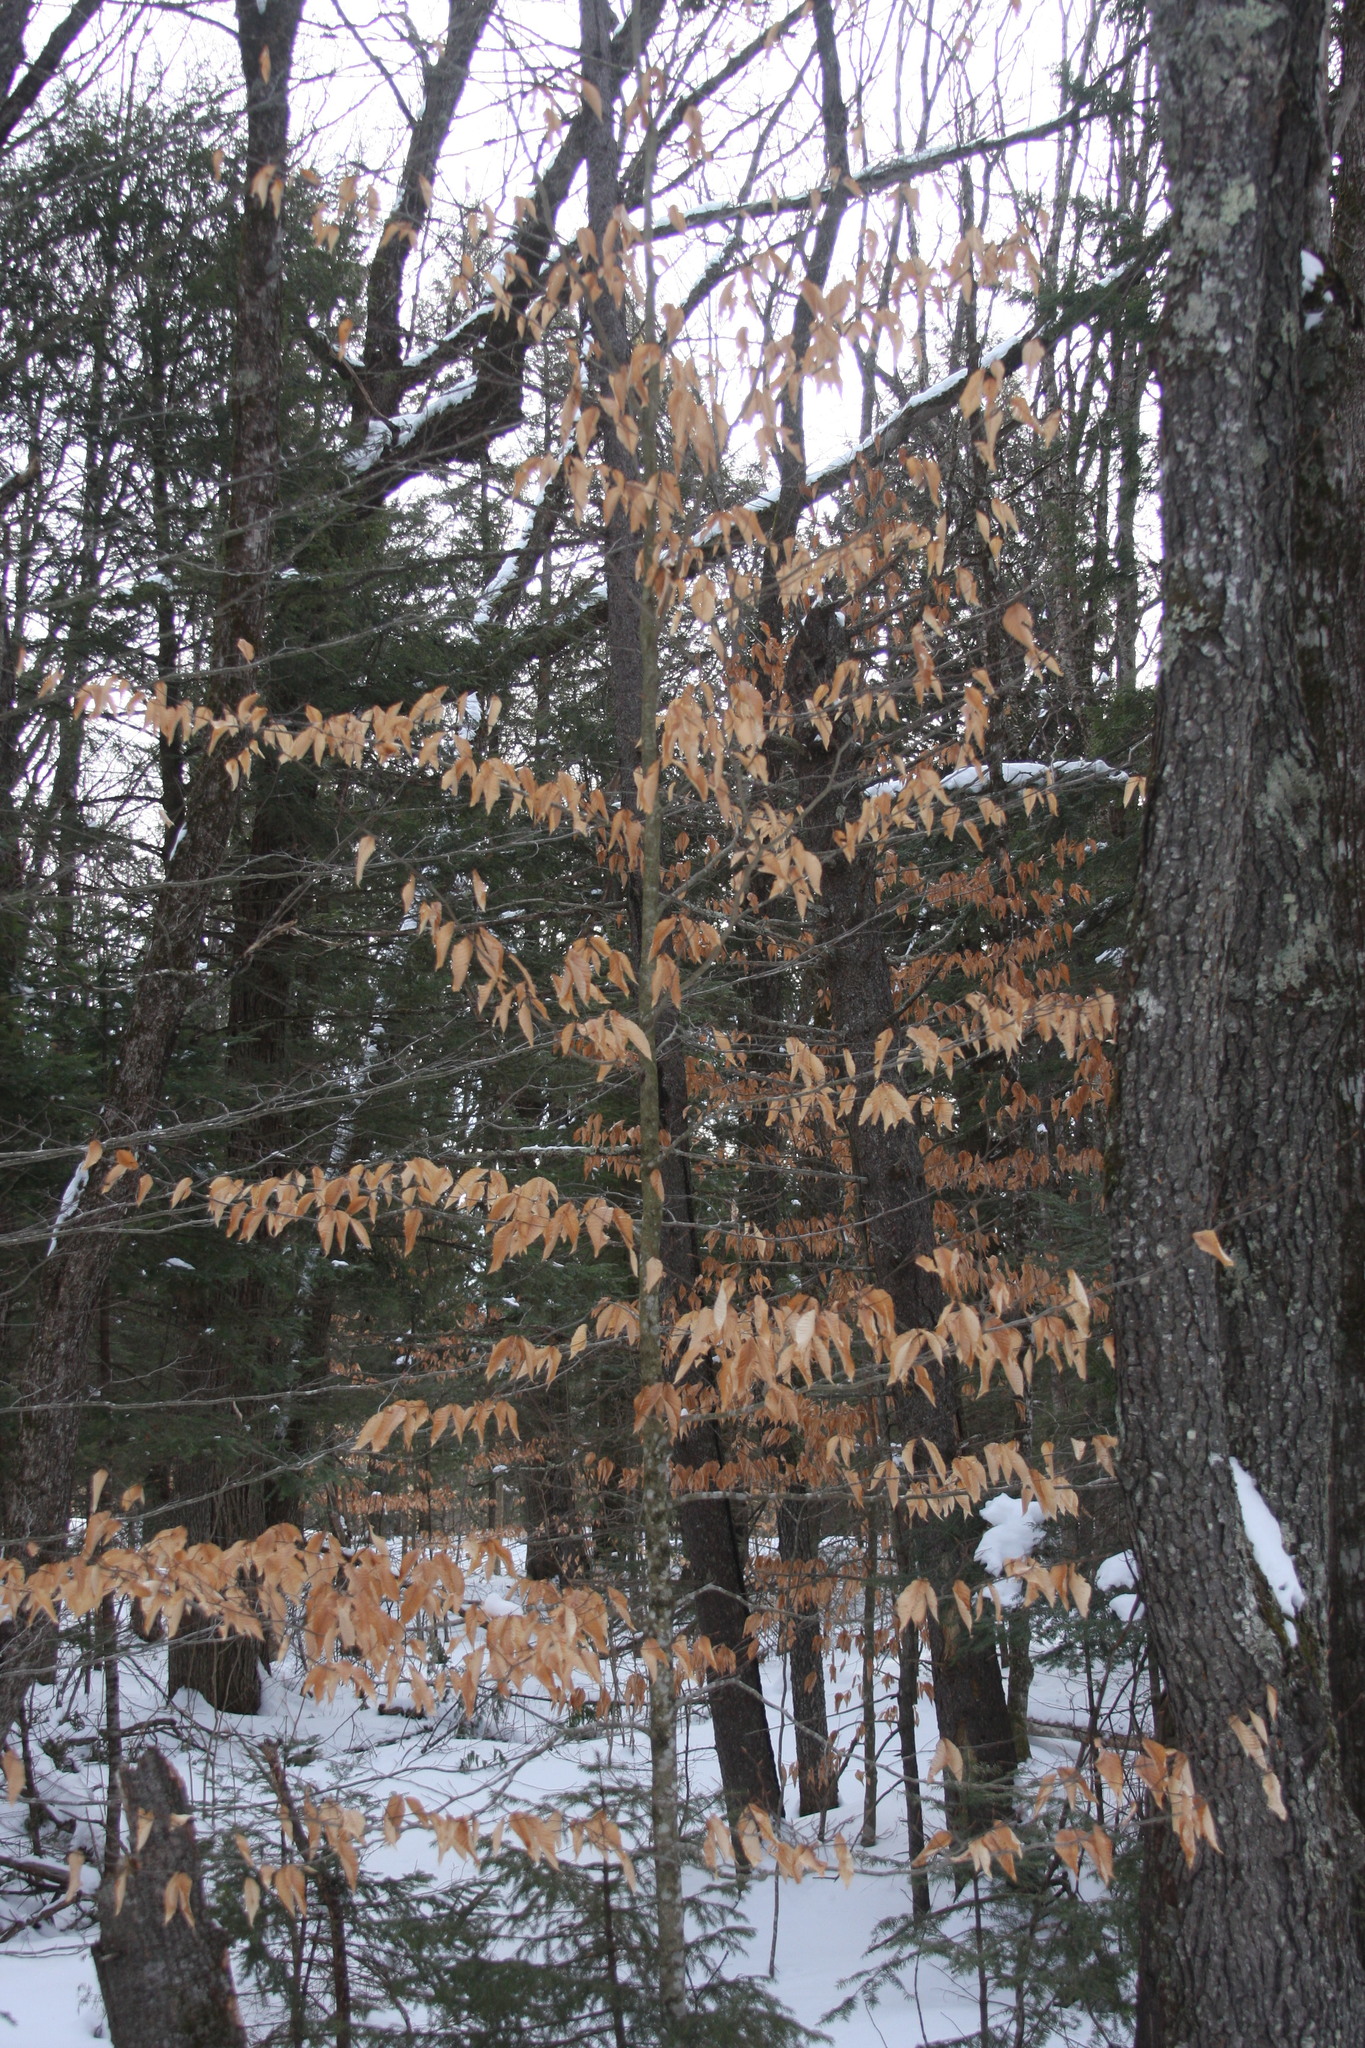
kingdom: Plantae
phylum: Tracheophyta
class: Magnoliopsida
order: Fagales
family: Fagaceae
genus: Fagus
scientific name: Fagus grandifolia
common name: American beech
